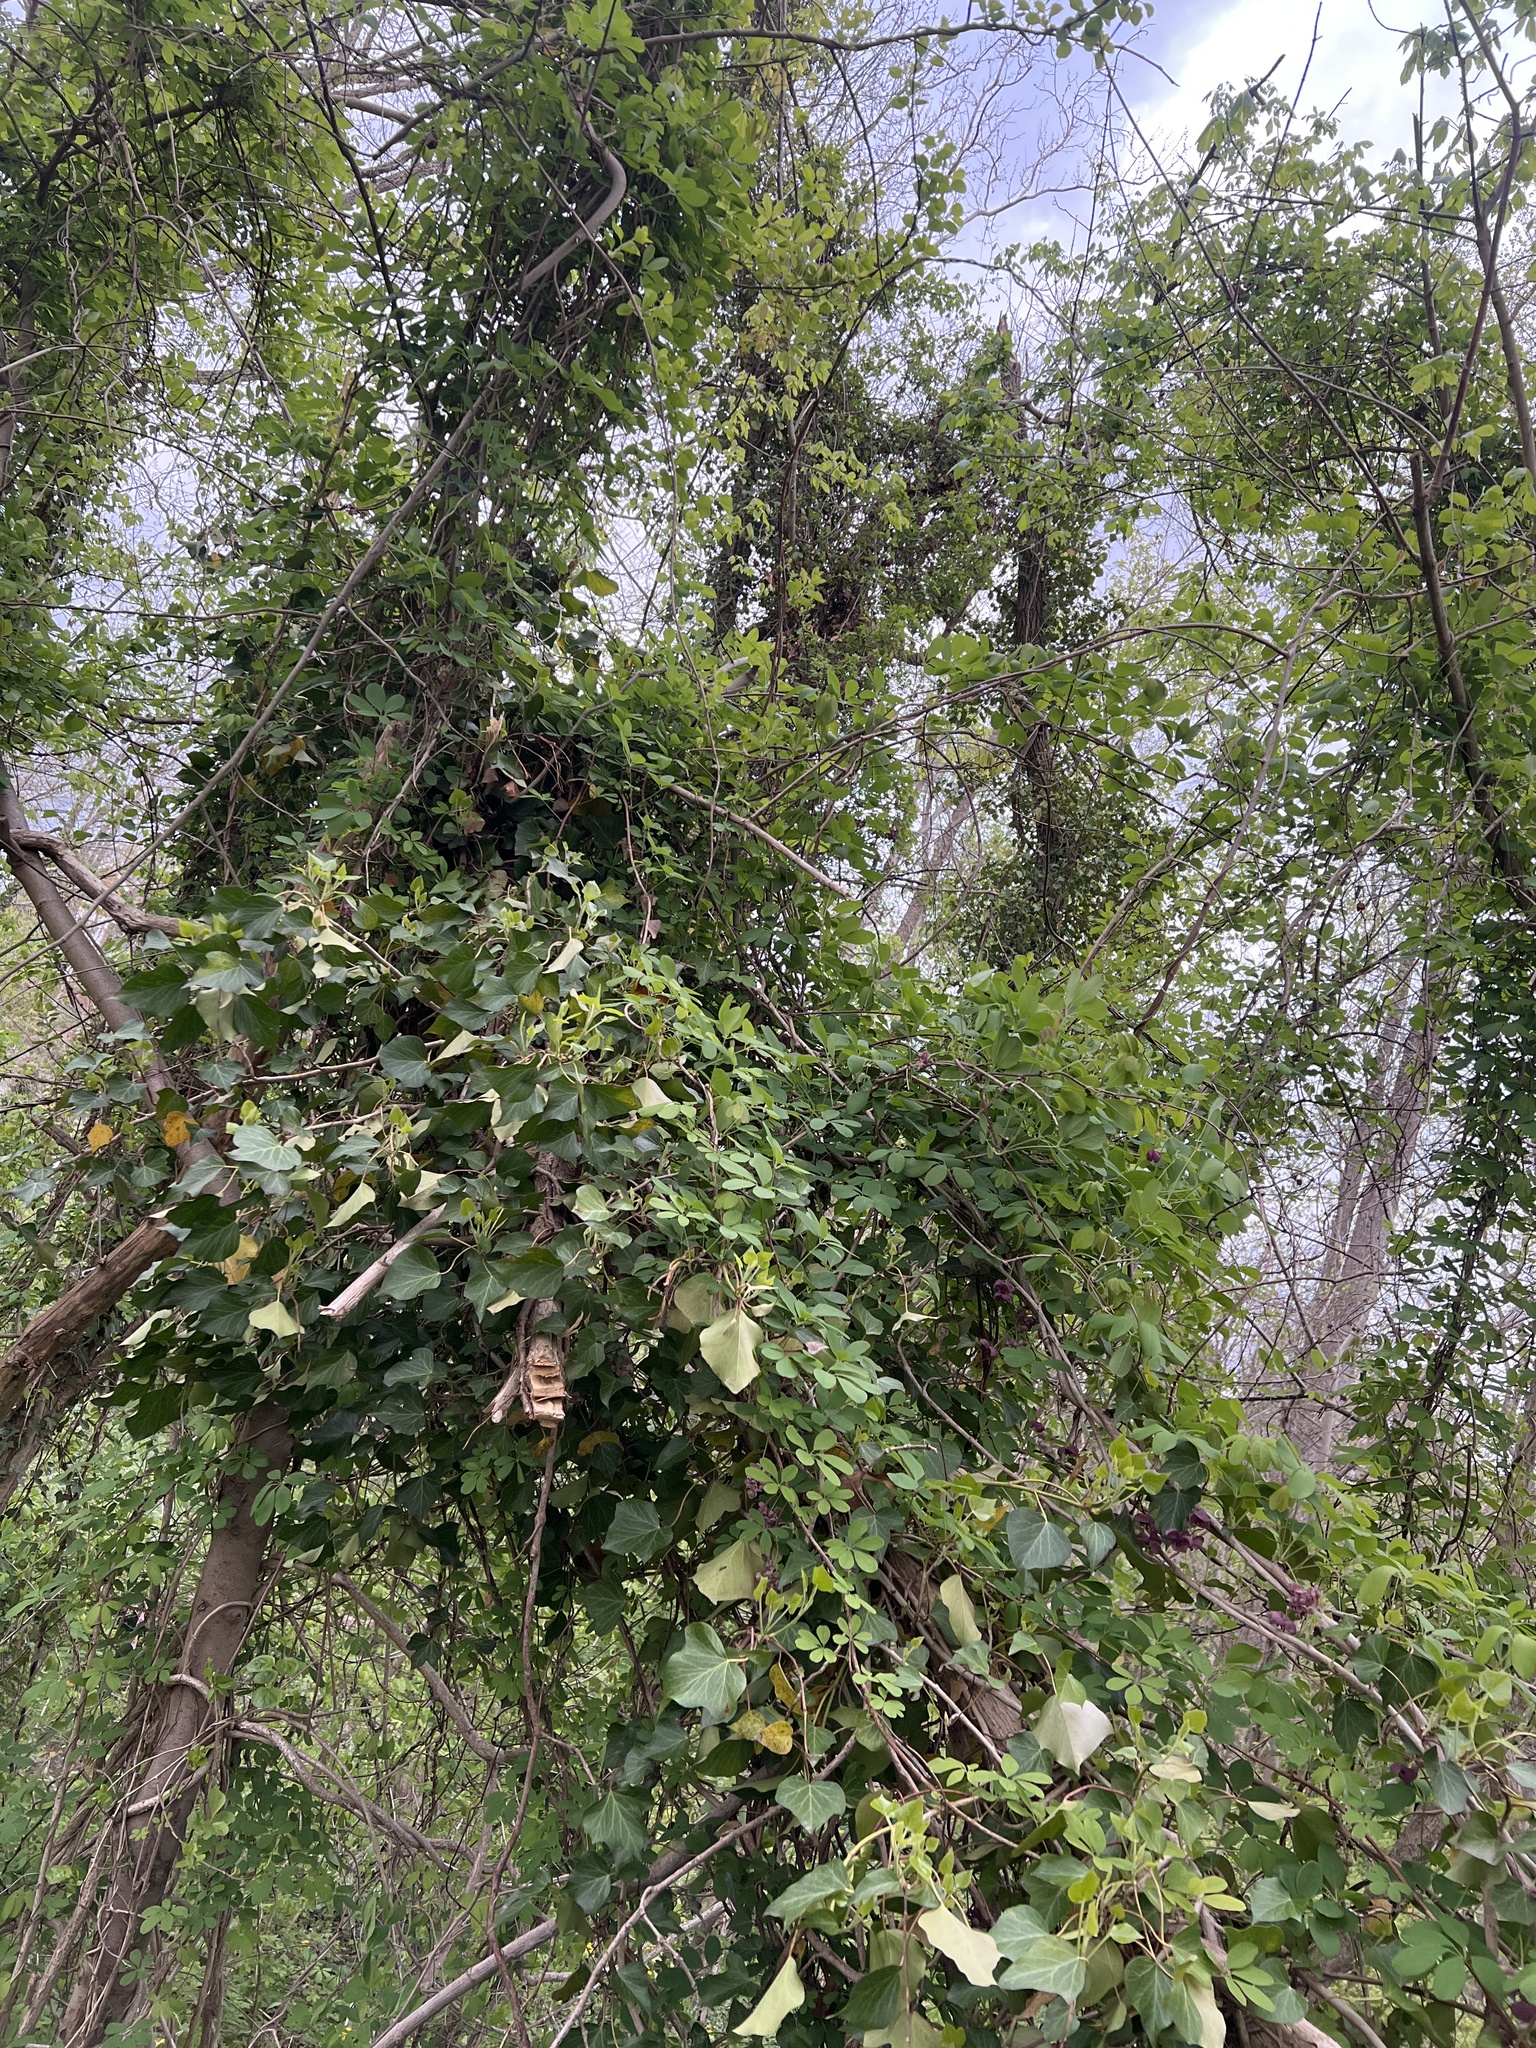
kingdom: Plantae
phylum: Tracheophyta
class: Magnoliopsida
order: Ranunculales
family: Lardizabalaceae
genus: Akebia
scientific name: Akebia quinata
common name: Five-leaf akebia
